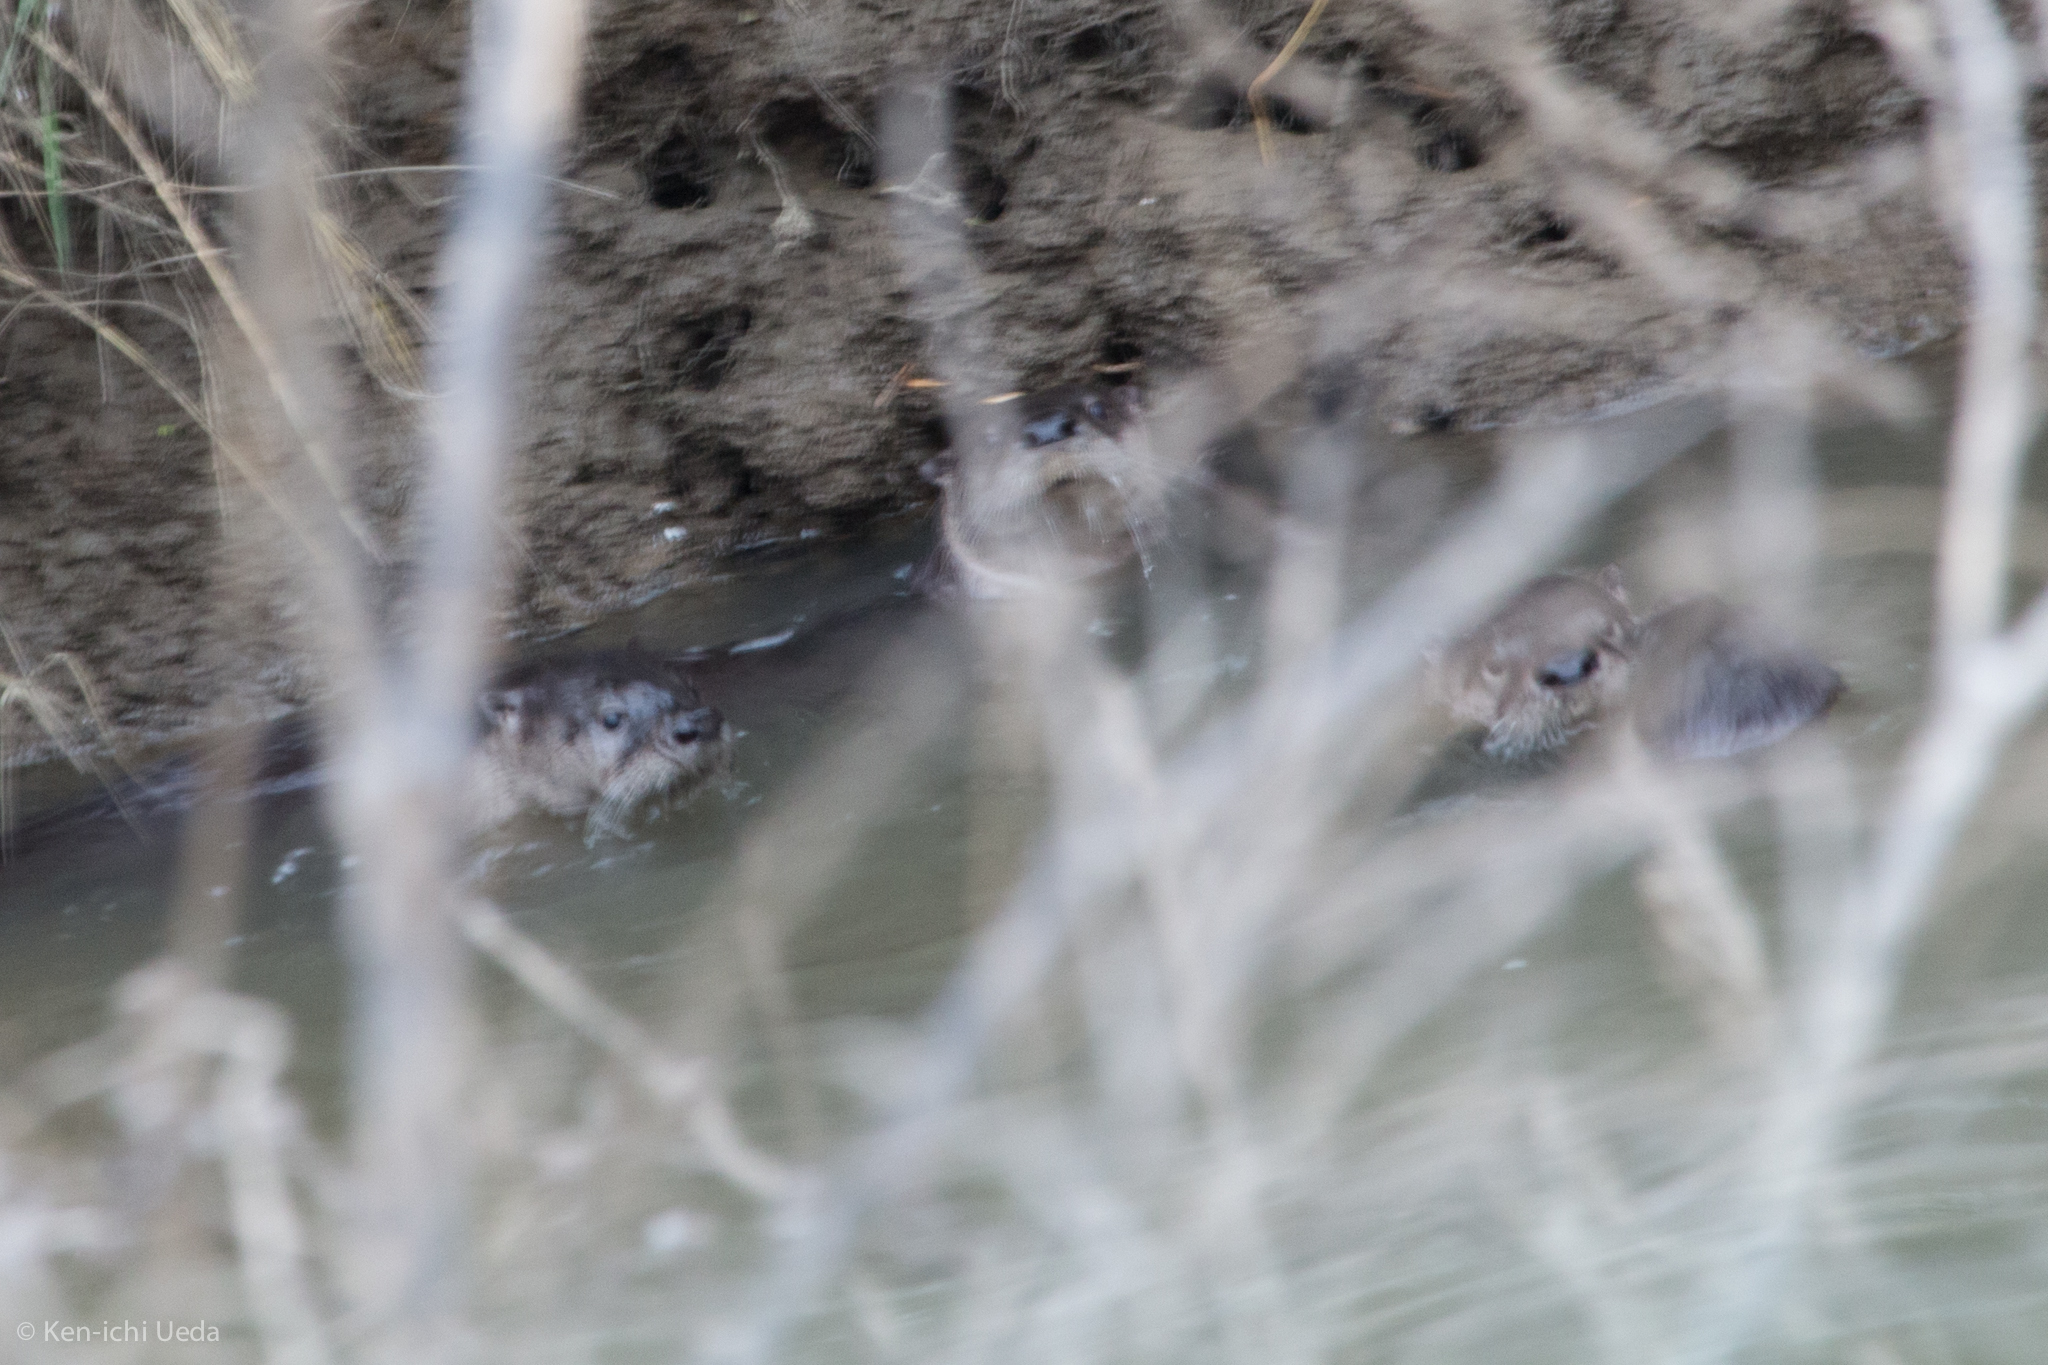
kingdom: Animalia
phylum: Chordata
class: Mammalia
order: Carnivora
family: Mustelidae
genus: Lontra
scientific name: Lontra canadensis
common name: North american river otter
